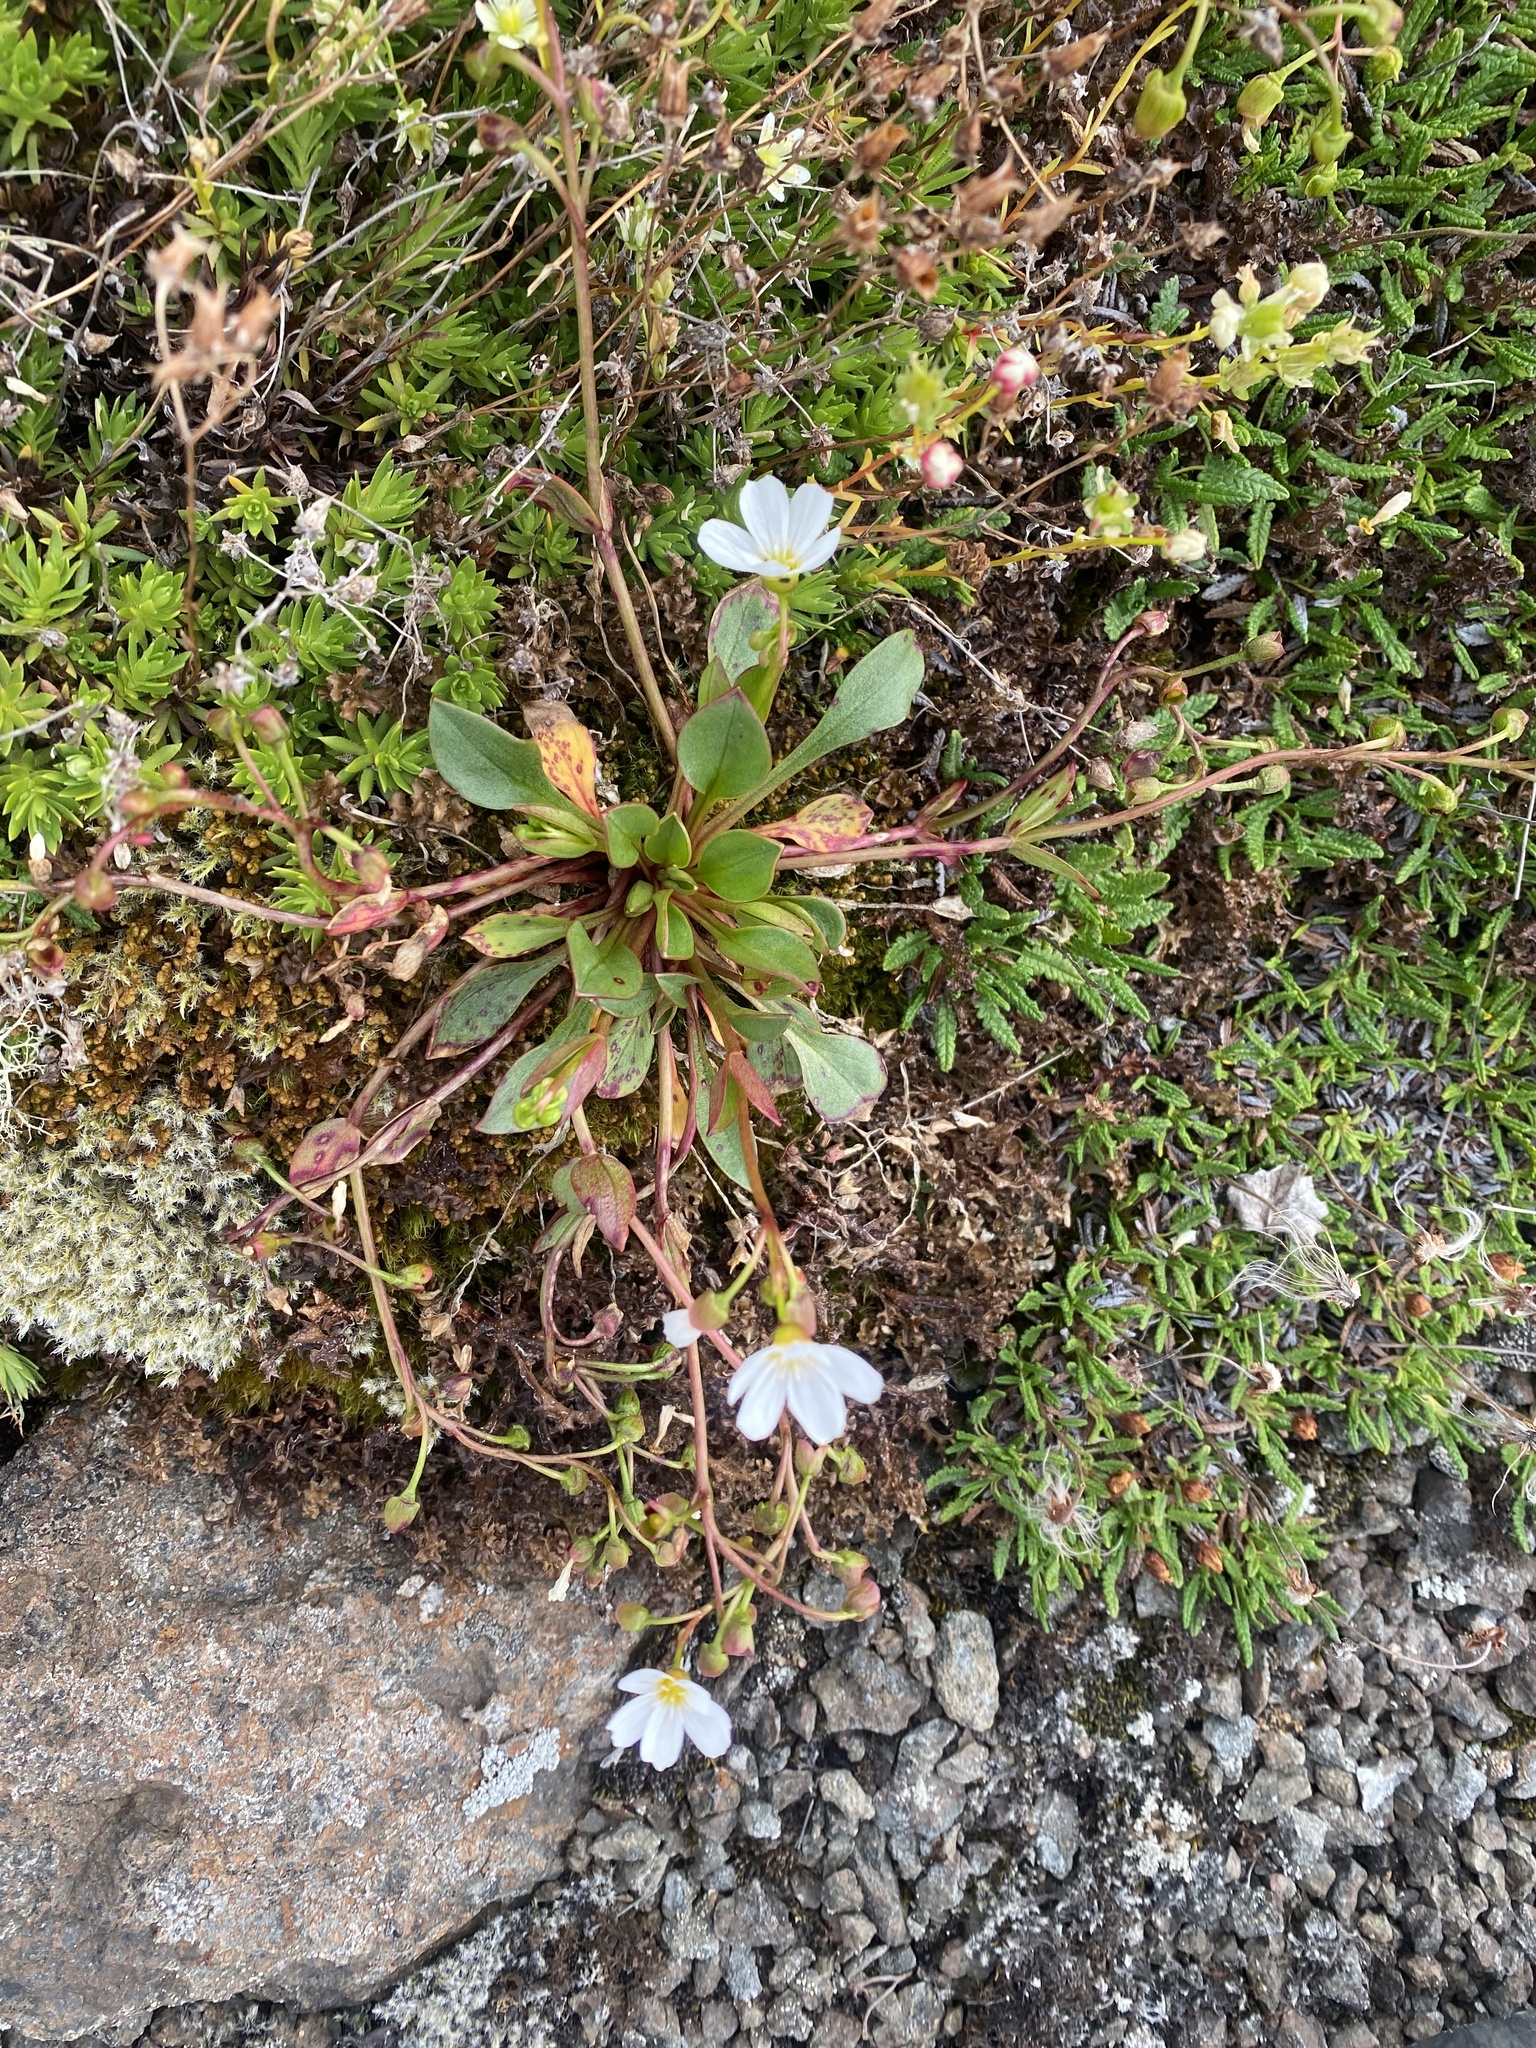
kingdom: Plantae
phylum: Tracheophyta
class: Magnoliopsida
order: Saxifragales
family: Saxifragaceae
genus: Saxifraga
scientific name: Saxifraga serpyllifolia
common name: Thyme-leaved saxifrage
